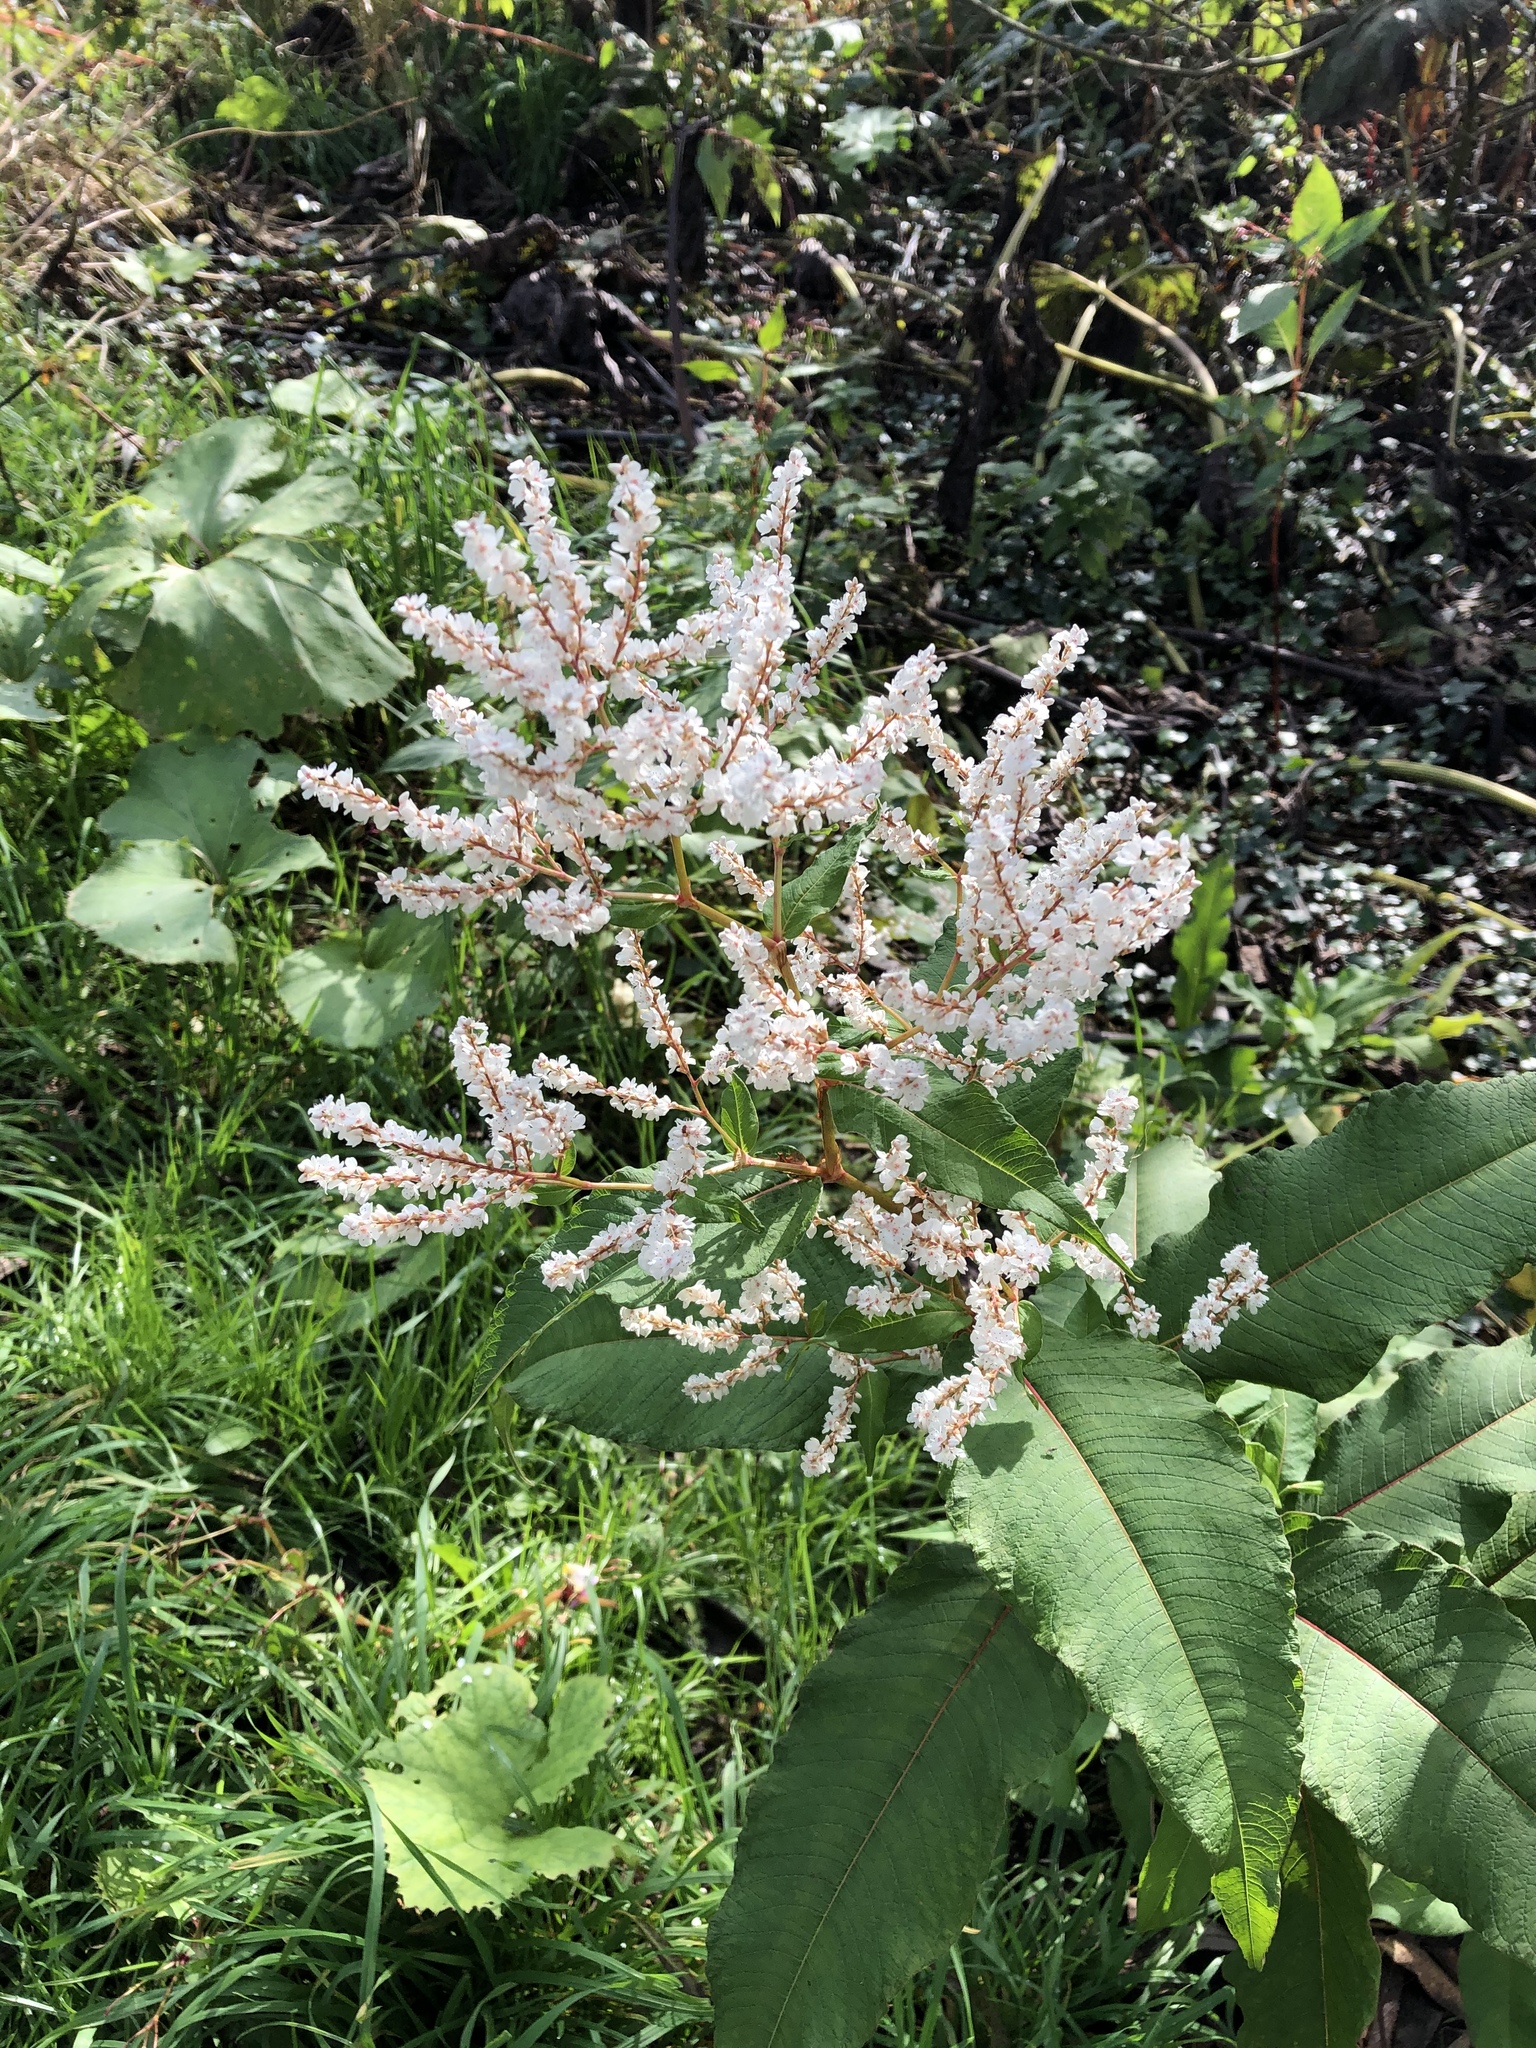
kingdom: Plantae
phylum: Tracheophyta
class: Magnoliopsida
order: Caryophyllales
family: Polygonaceae
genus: Koenigia
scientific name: Koenigia polystachya
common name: Himalayan knotweed
